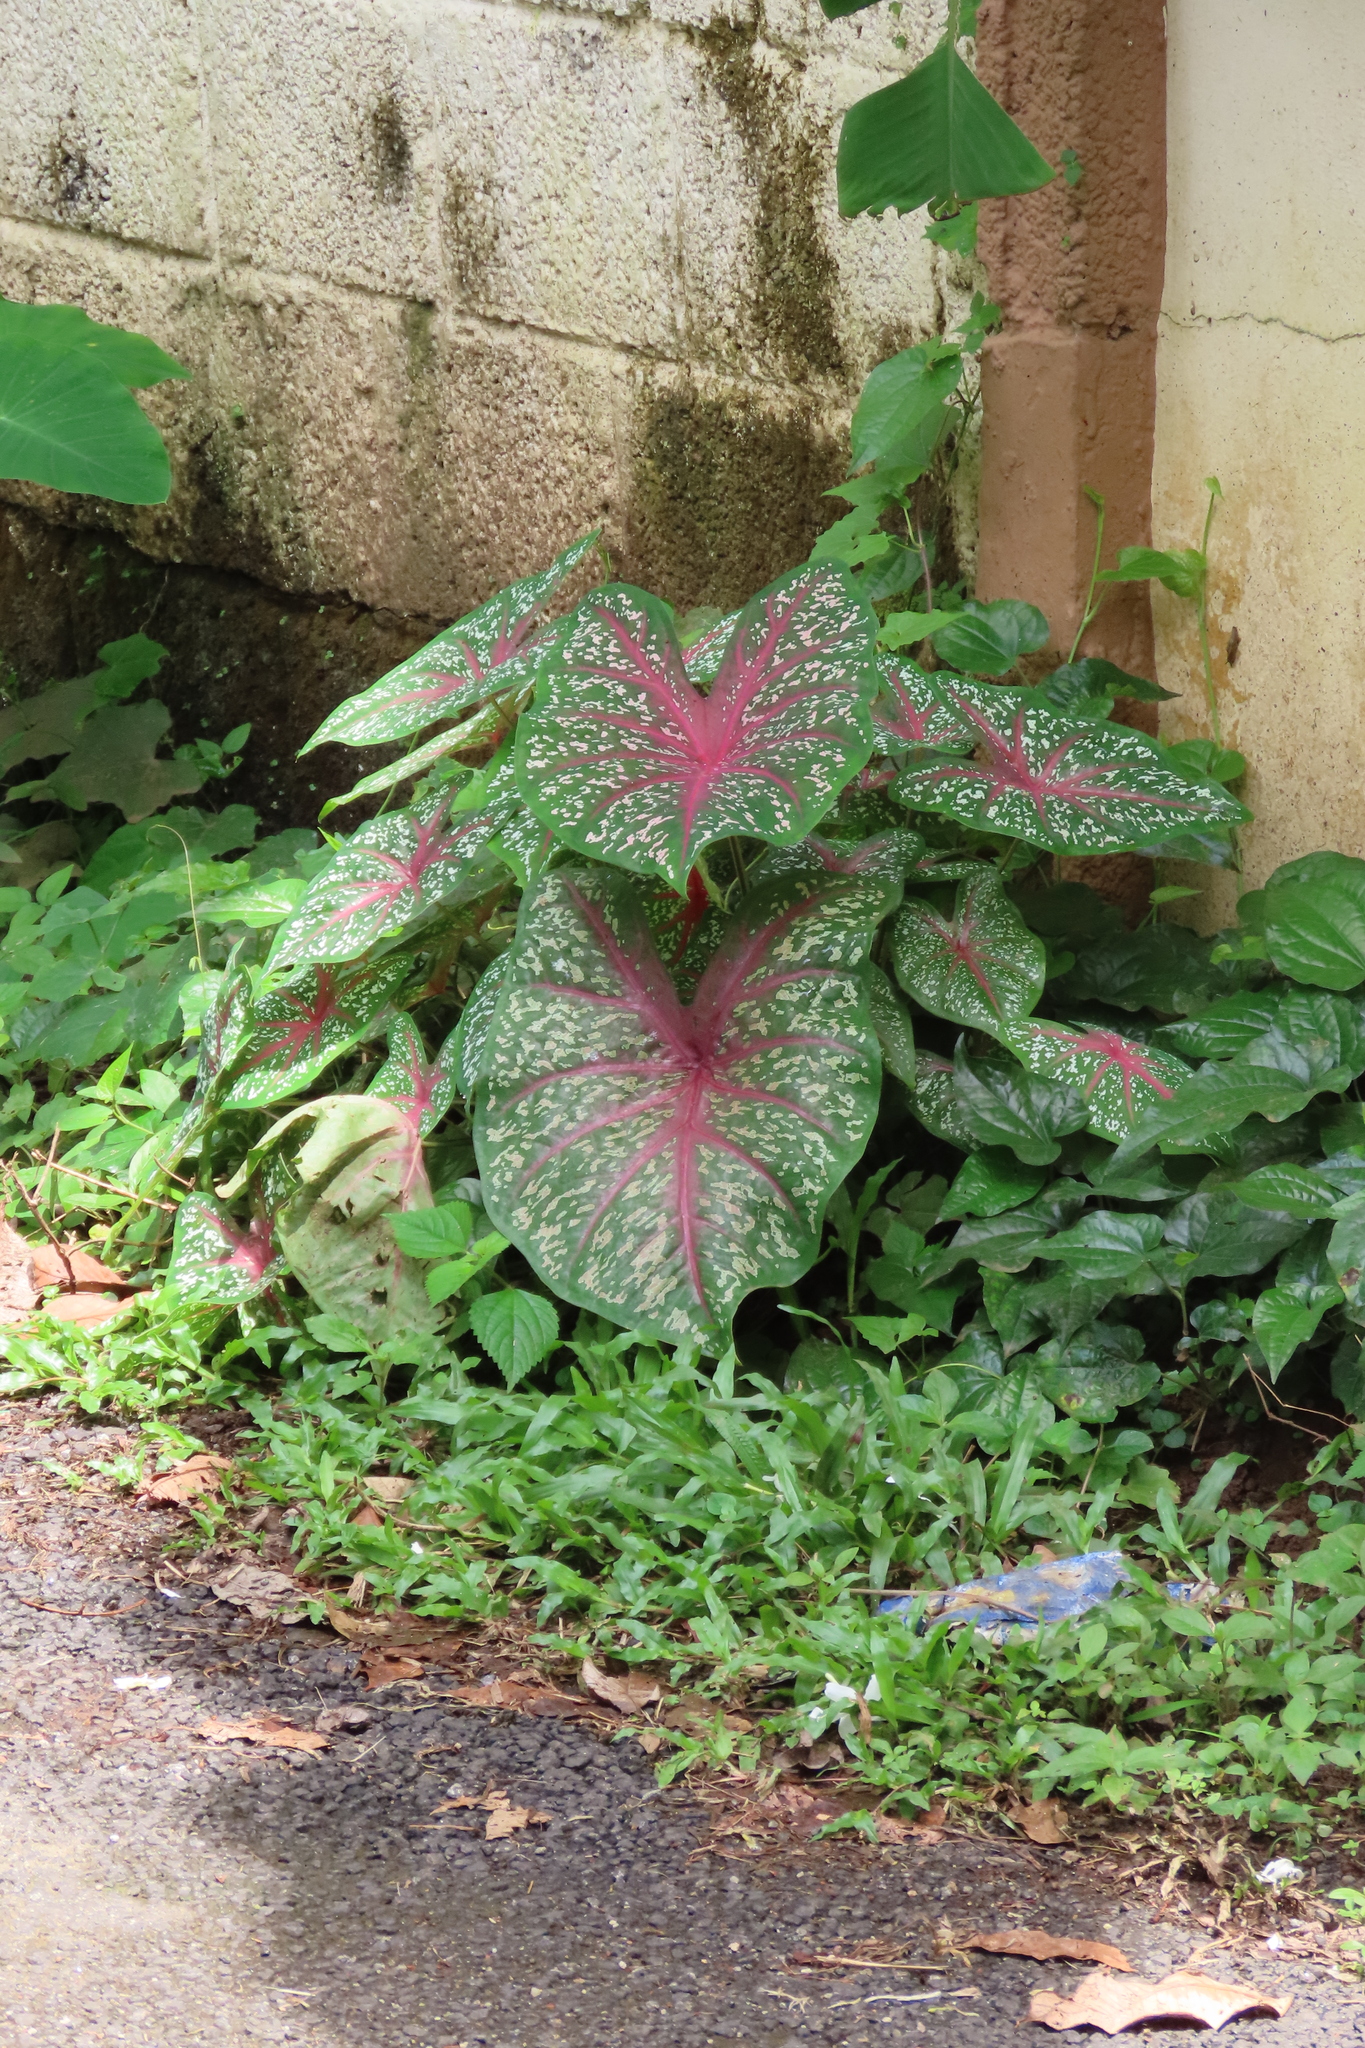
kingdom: Plantae
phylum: Tracheophyta
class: Liliopsida
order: Alismatales
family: Araceae
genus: Caladium
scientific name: Caladium bicolor
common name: Artist's pallet
